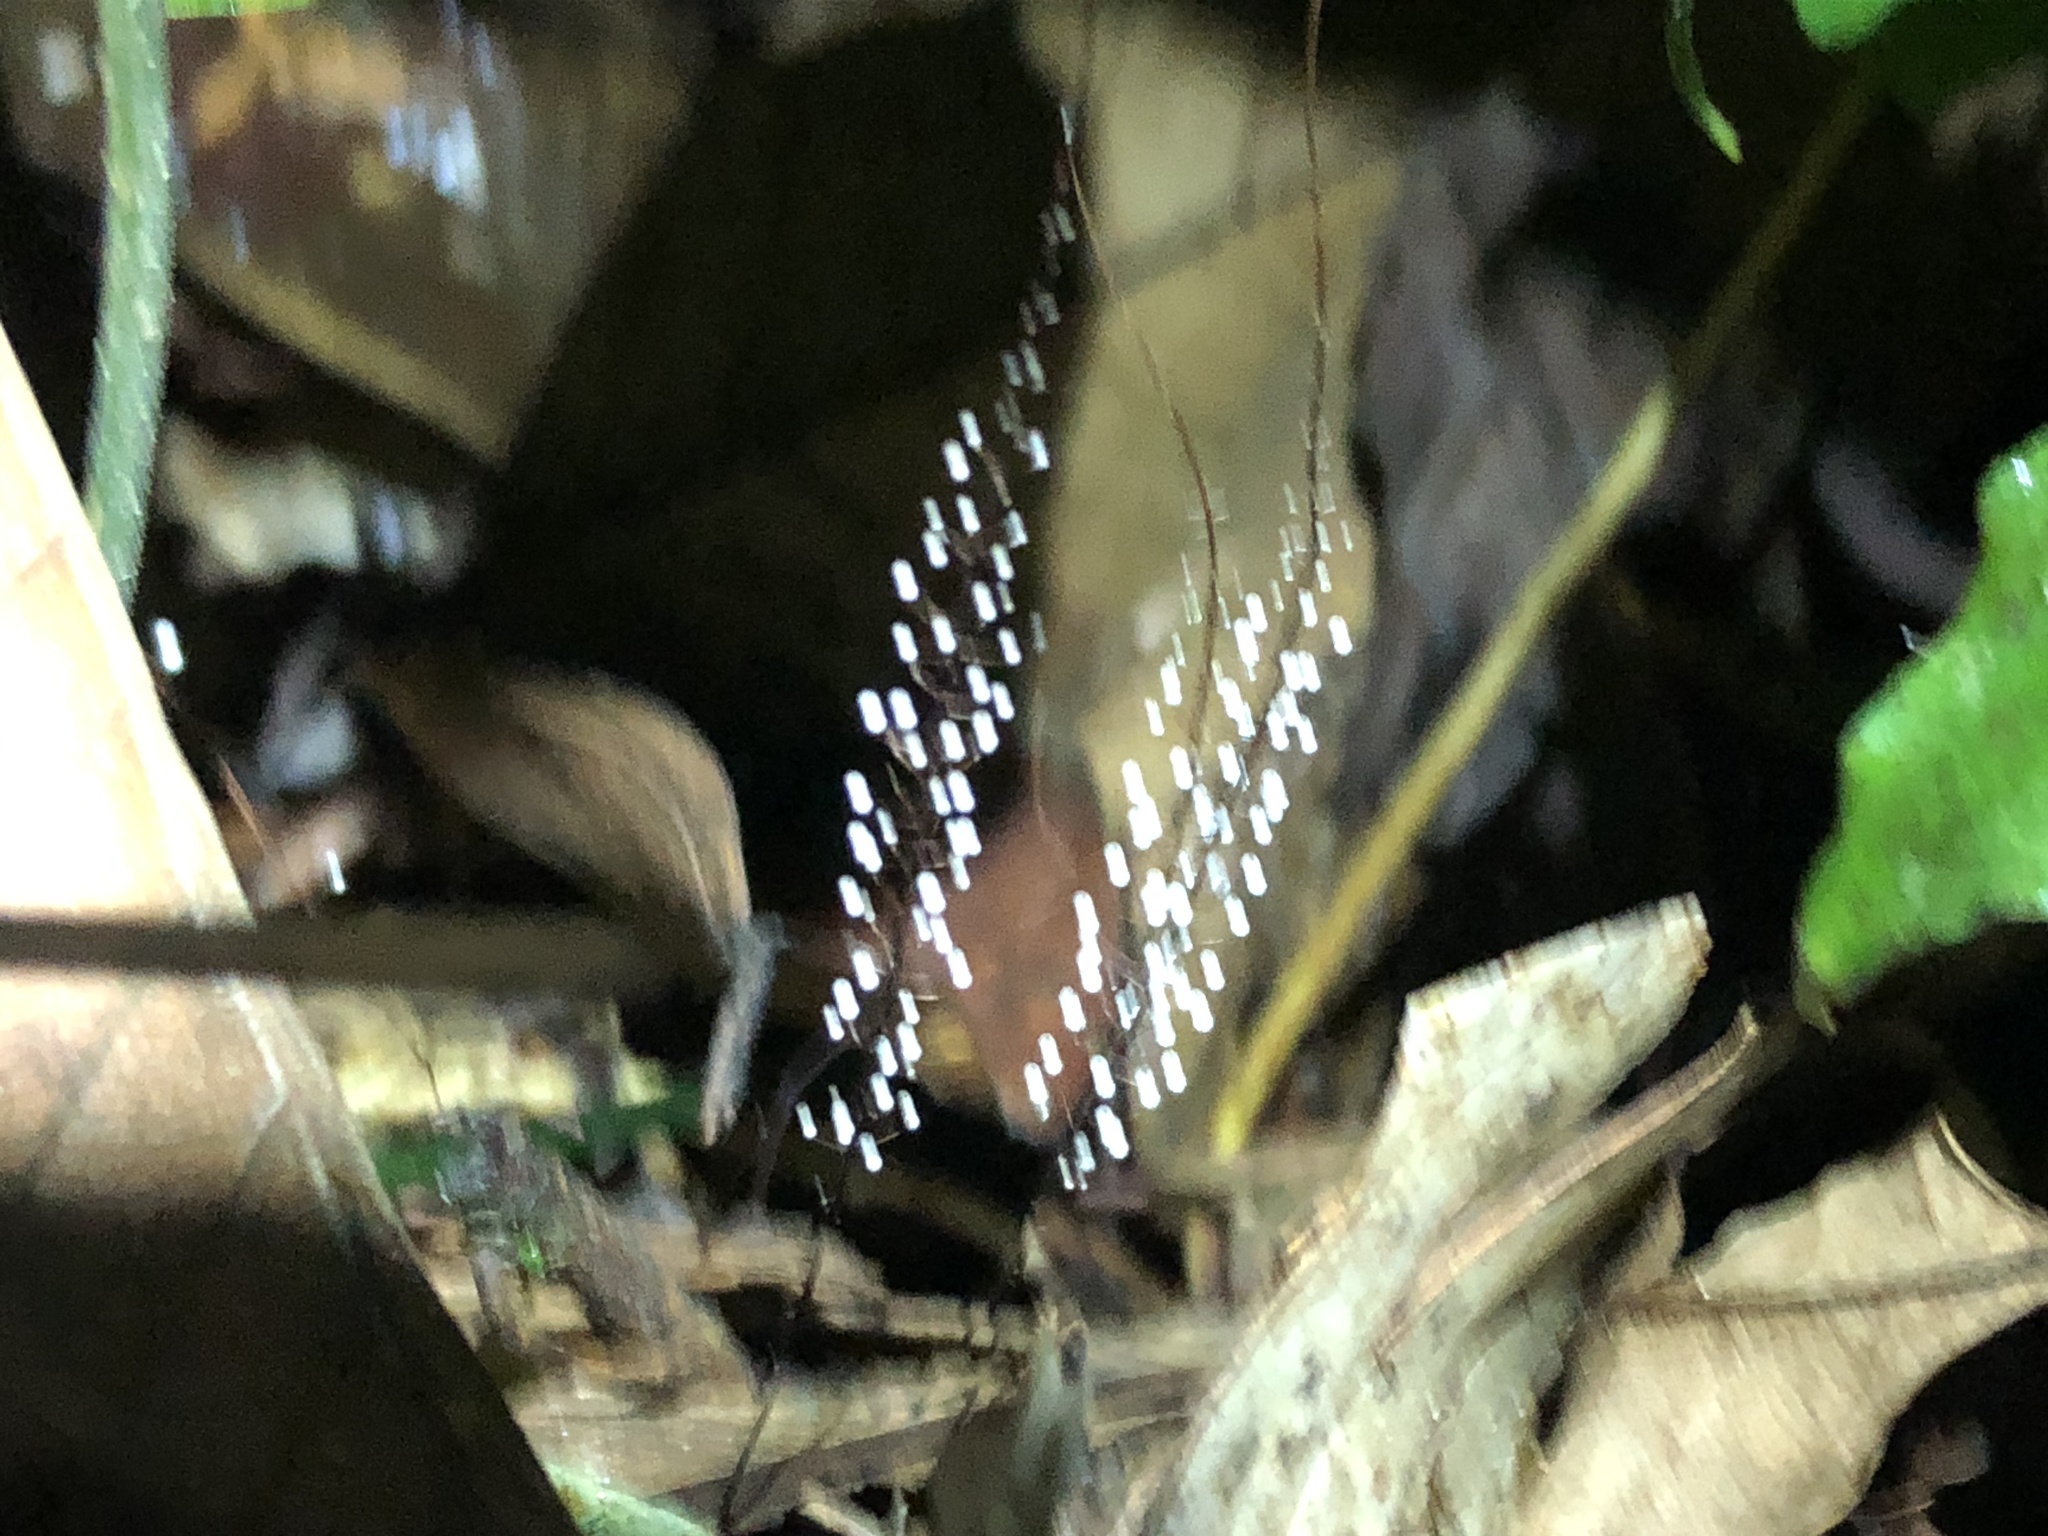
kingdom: Fungi
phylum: Basidiomycota
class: Agaricomycetes
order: Agaricales
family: Marasmiaceae
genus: Marasmius
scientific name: Marasmius
